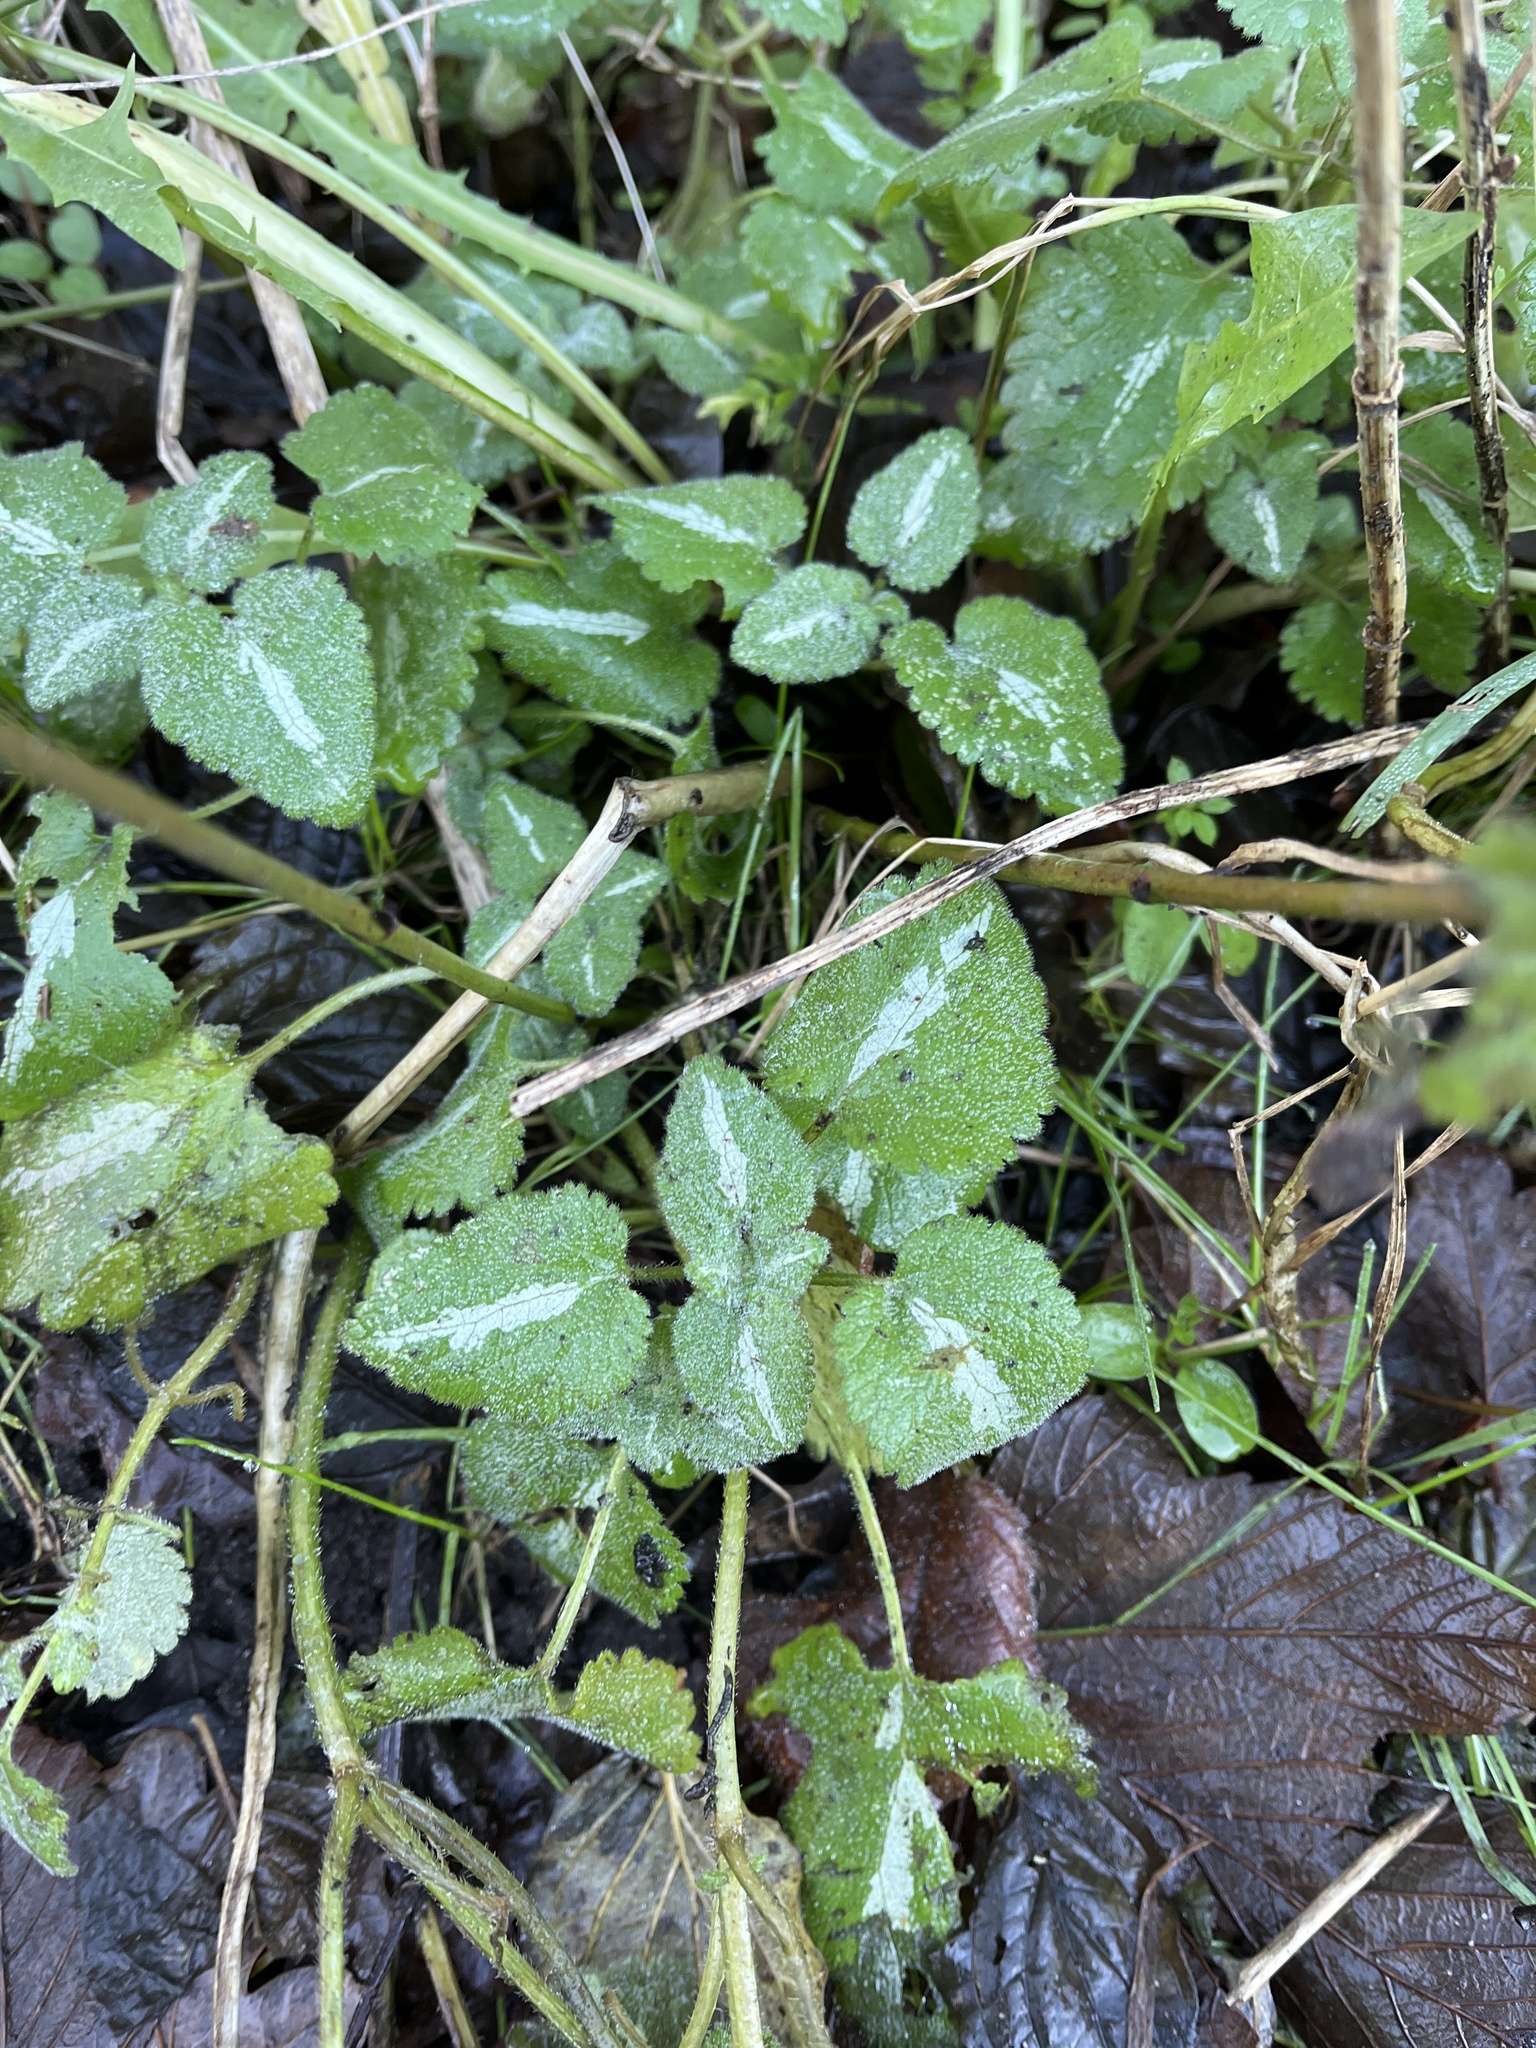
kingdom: Plantae
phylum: Tracheophyta
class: Magnoliopsida
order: Lamiales
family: Lamiaceae
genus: Lamium
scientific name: Lamium maculatum
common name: Spotted dead-nettle
